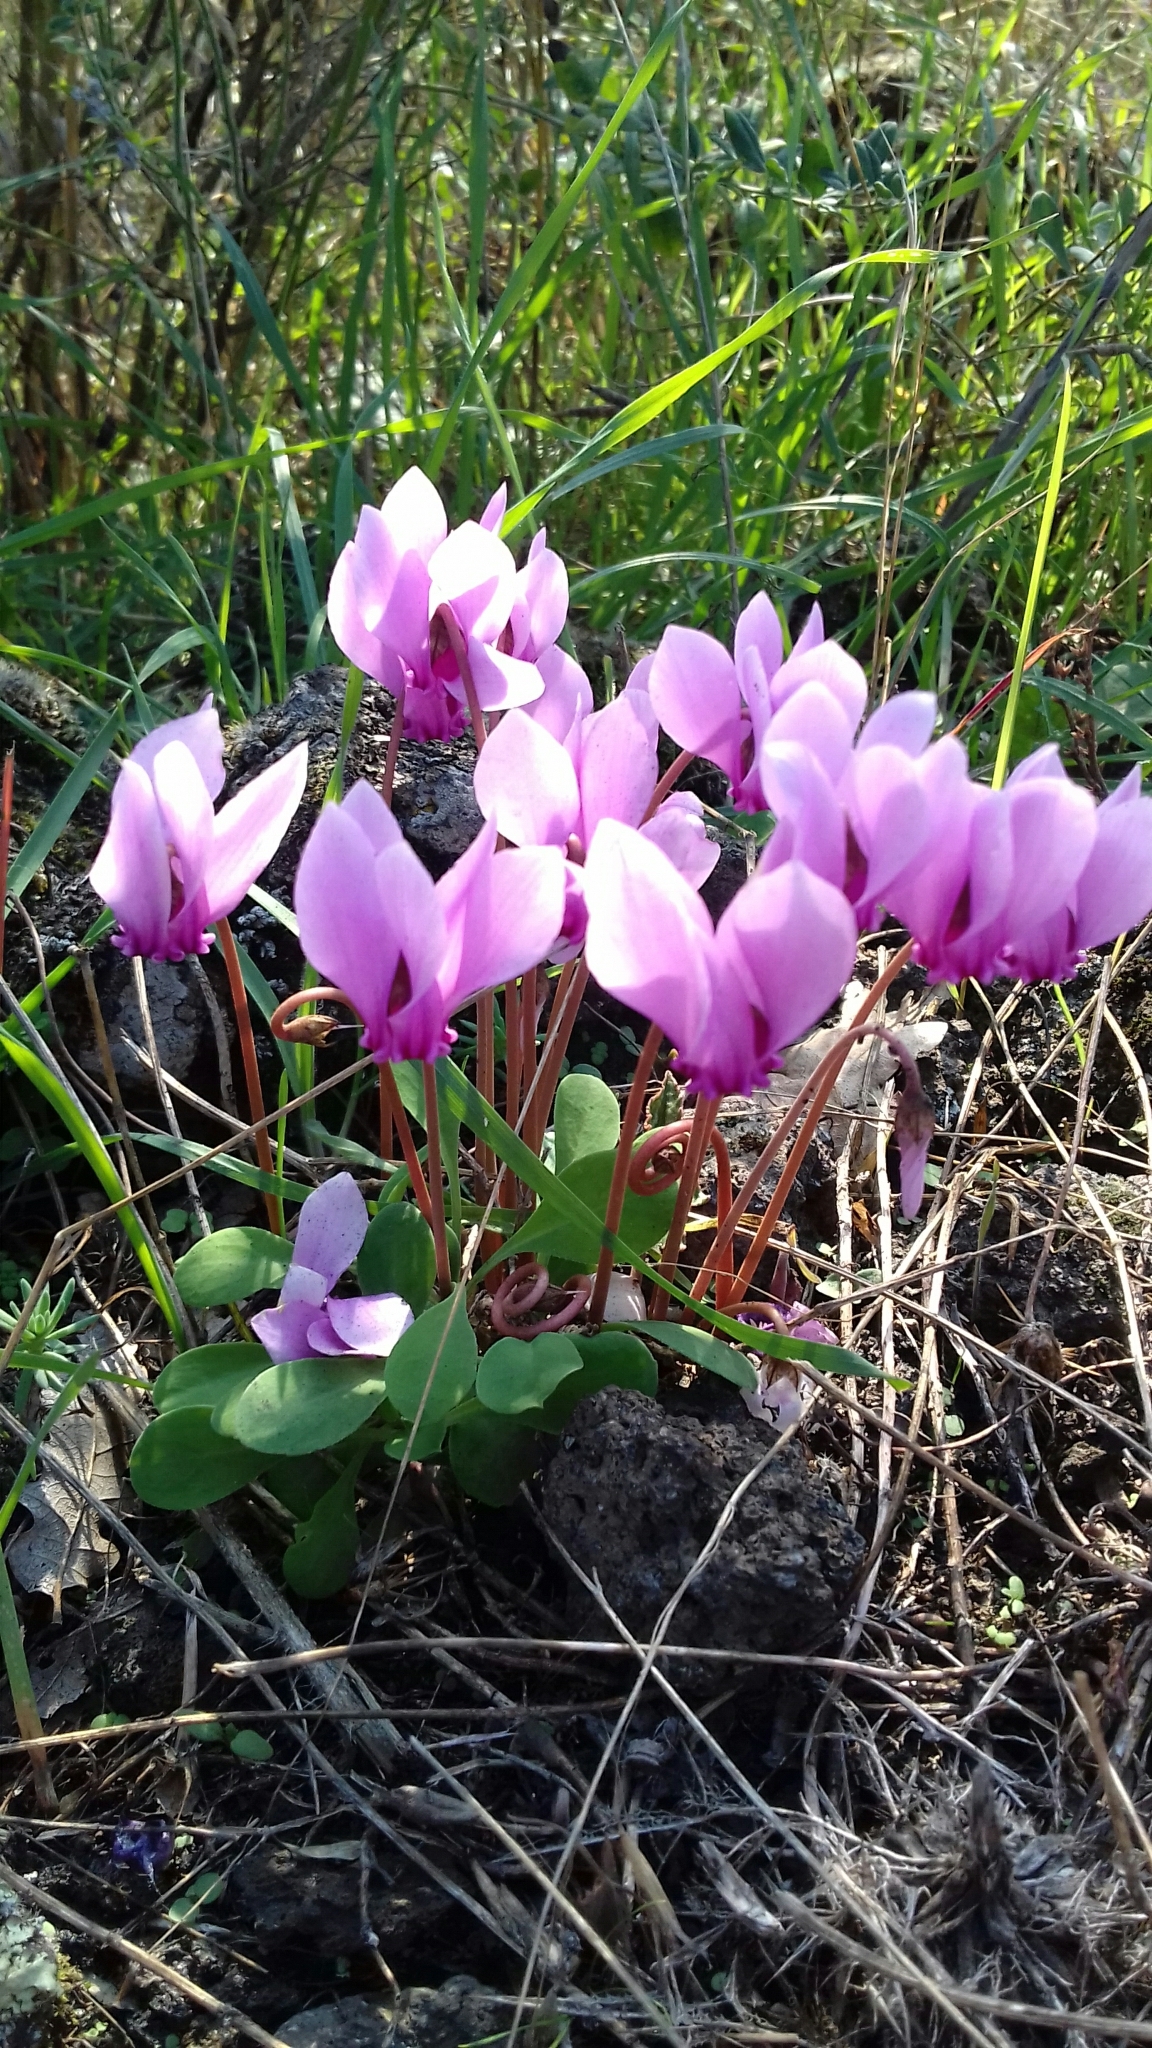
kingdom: Plantae
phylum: Tracheophyta
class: Magnoliopsida
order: Ericales
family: Primulaceae
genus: Cyclamen
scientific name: Cyclamen hederifolium
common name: Sowbread
